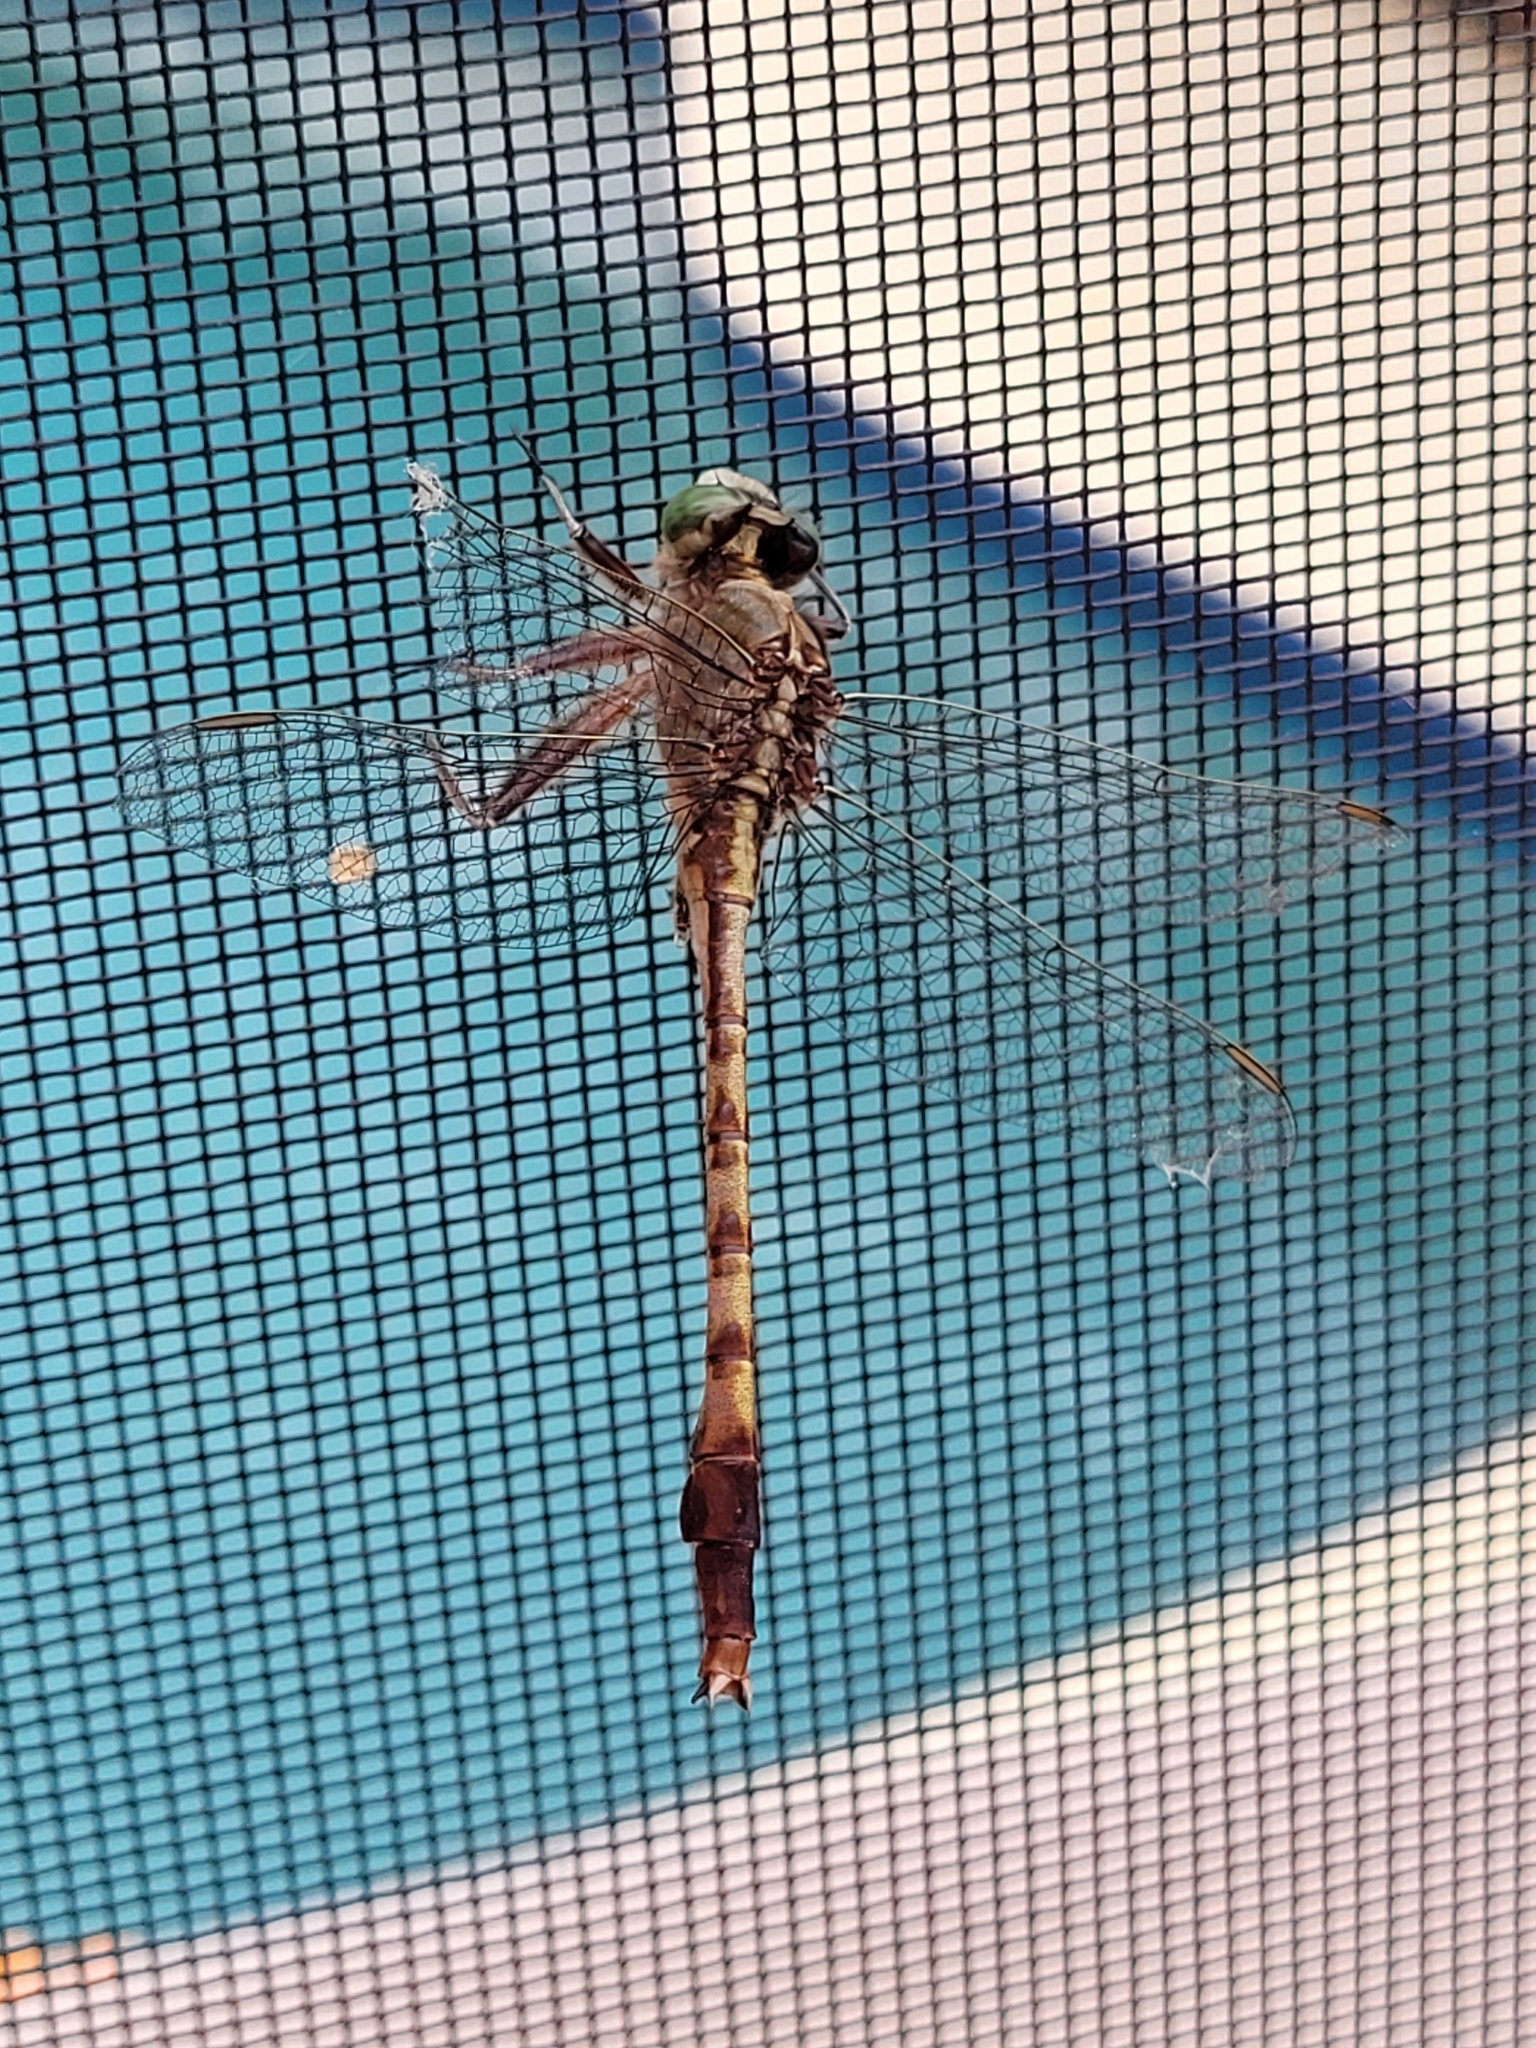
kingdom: Animalia
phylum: Arthropoda
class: Insecta
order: Odonata
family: Gomphidae
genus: Arigomphus
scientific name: Arigomphus pallidus
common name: Gray-green clubtail
